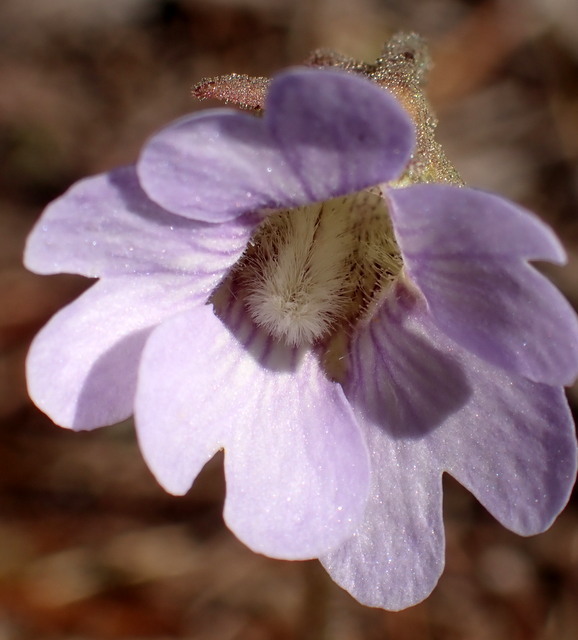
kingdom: Plantae
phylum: Tracheophyta
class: Magnoliopsida
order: Lamiales
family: Lentibulariaceae
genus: Pinguicula
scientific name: Pinguicula caerulea
